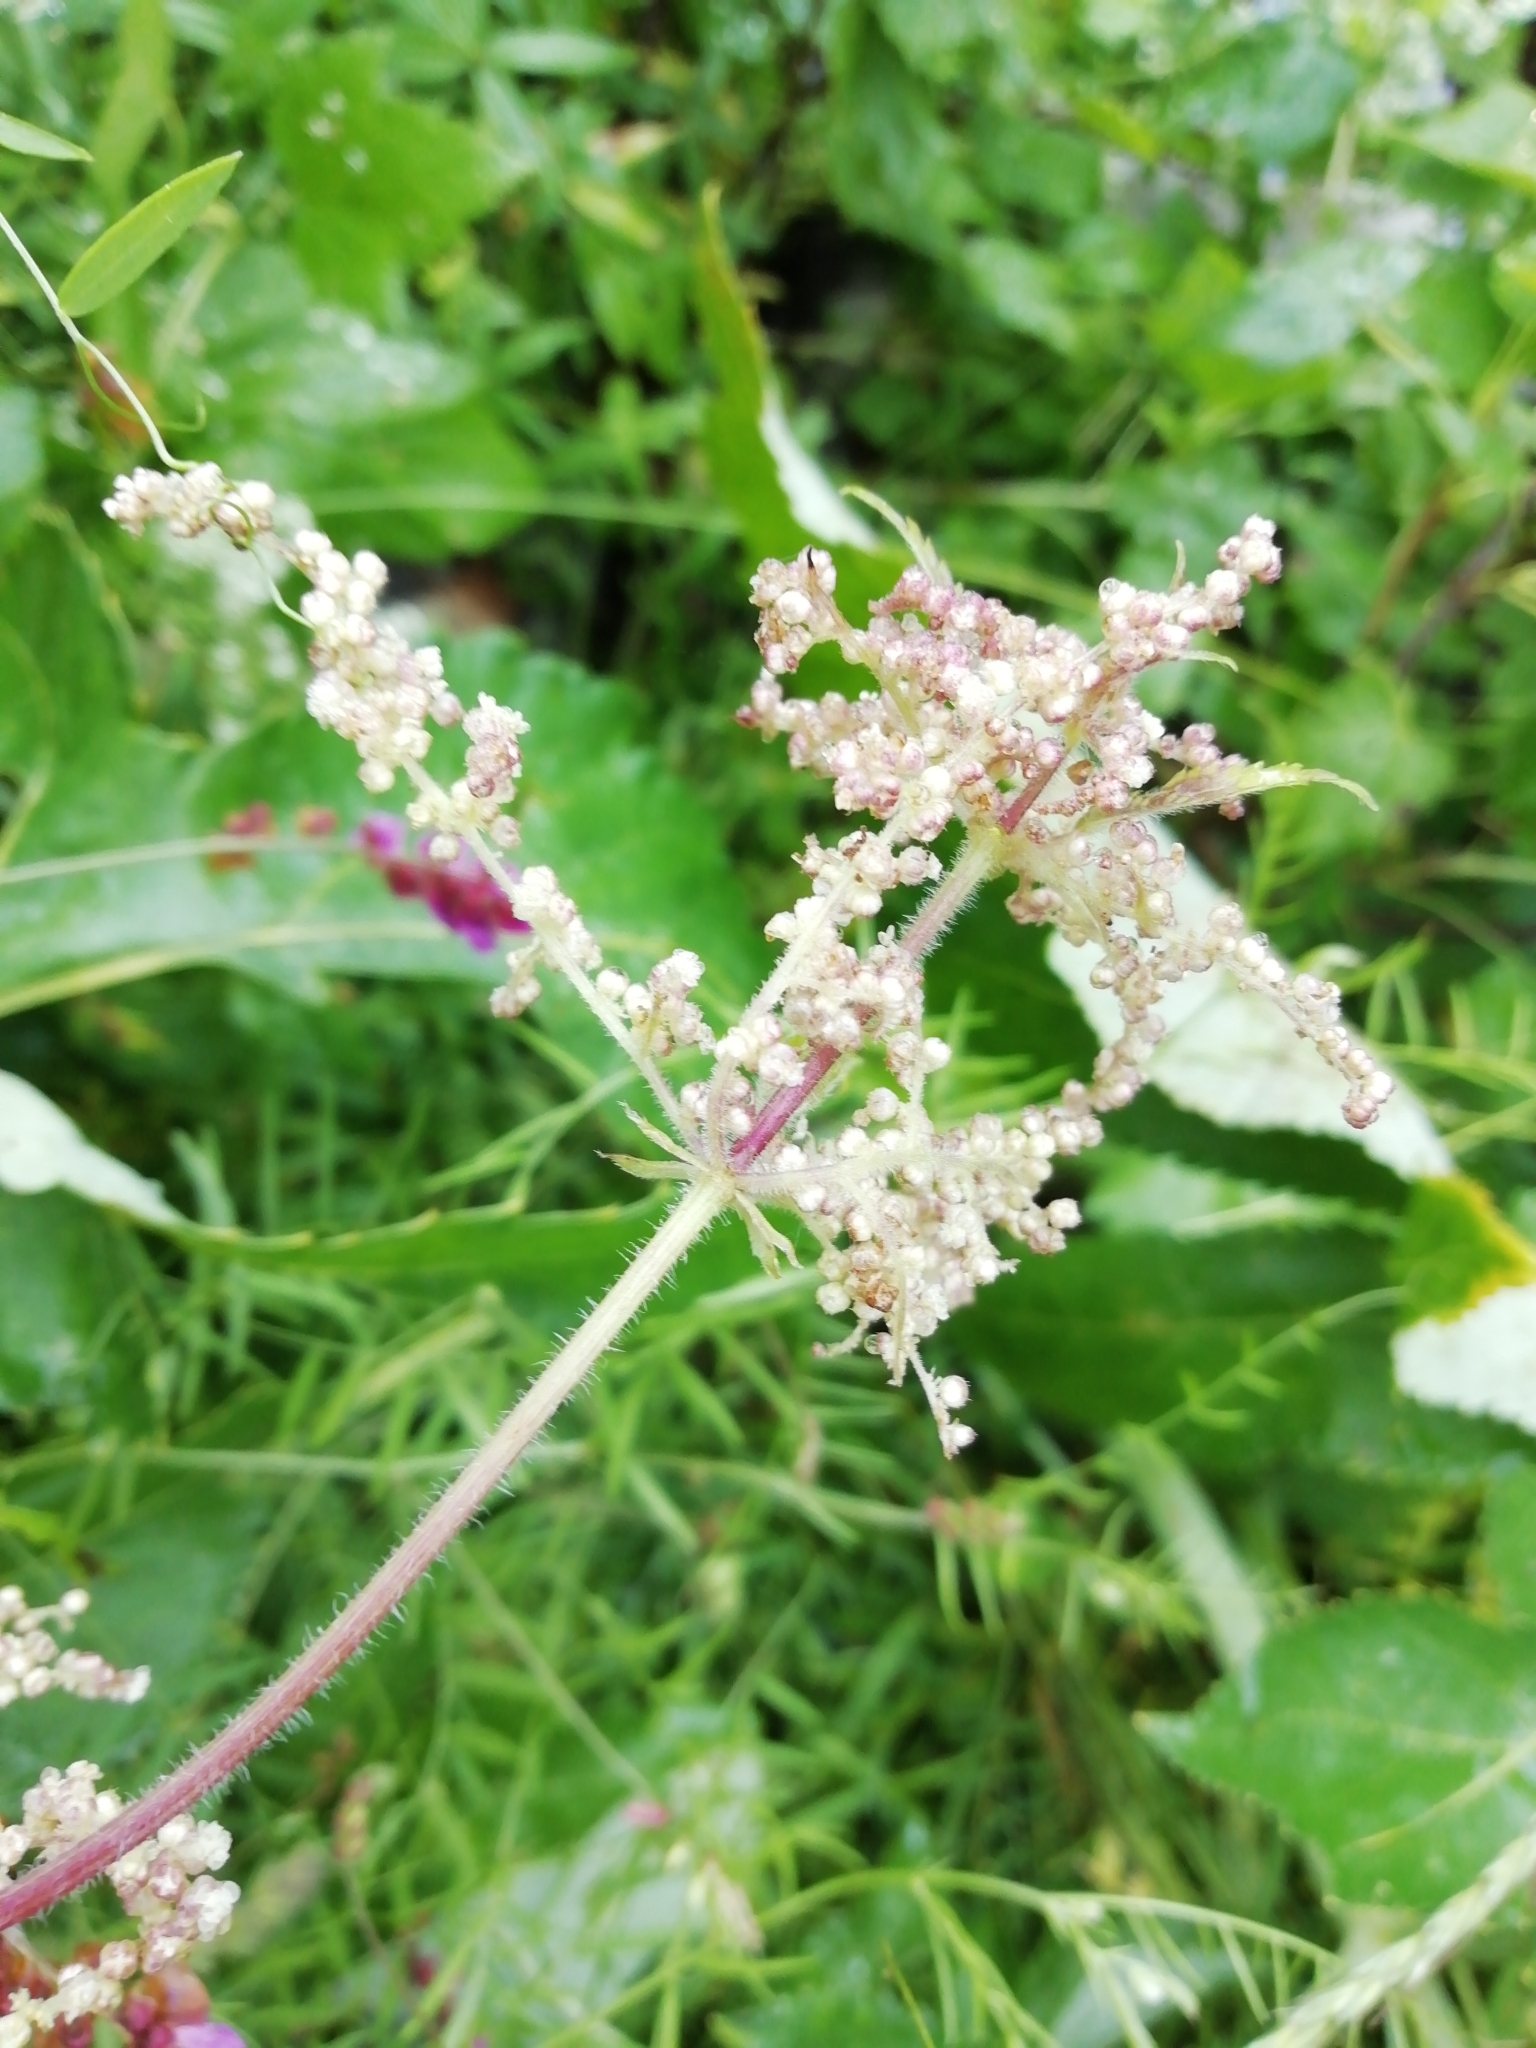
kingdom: Plantae
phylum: Tracheophyta
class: Magnoliopsida
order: Rosales
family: Urticaceae
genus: Urtica
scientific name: Urtica dioica
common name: Common nettle
